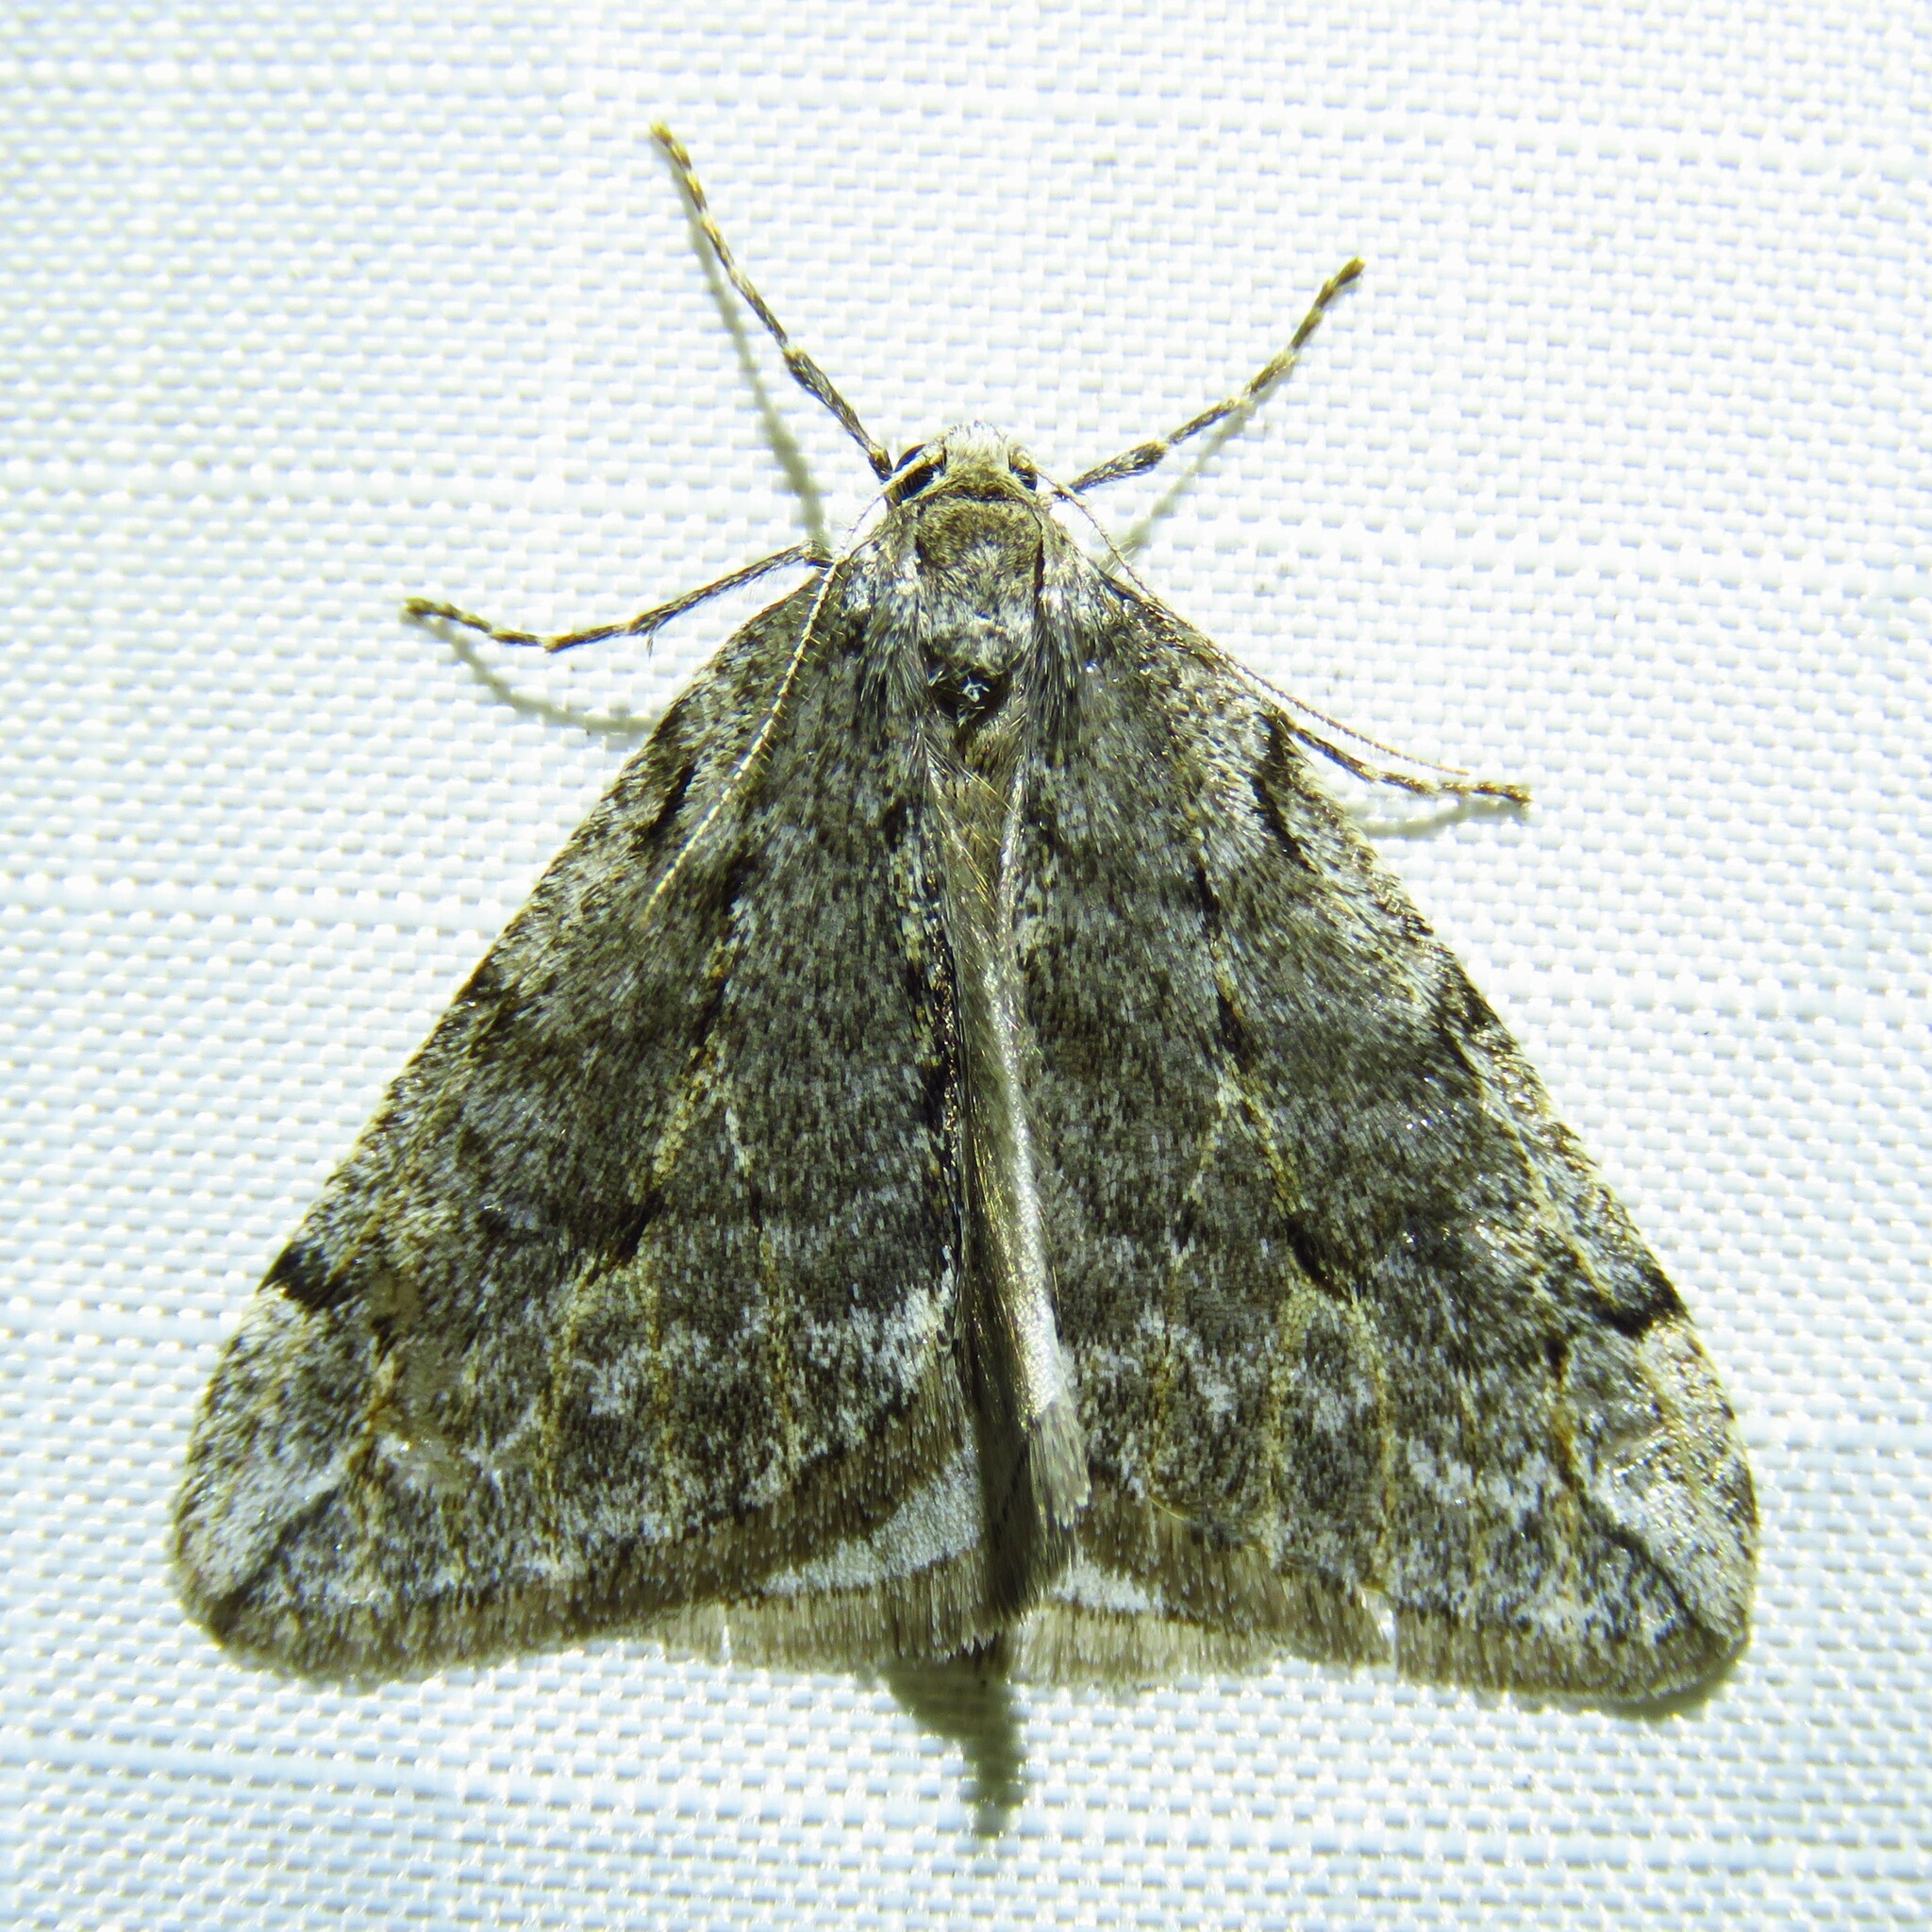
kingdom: Animalia
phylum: Arthropoda
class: Insecta
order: Lepidoptera
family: Geometridae
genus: Paleacrita
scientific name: Paleacrita vernata
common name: Spring cankerworm
